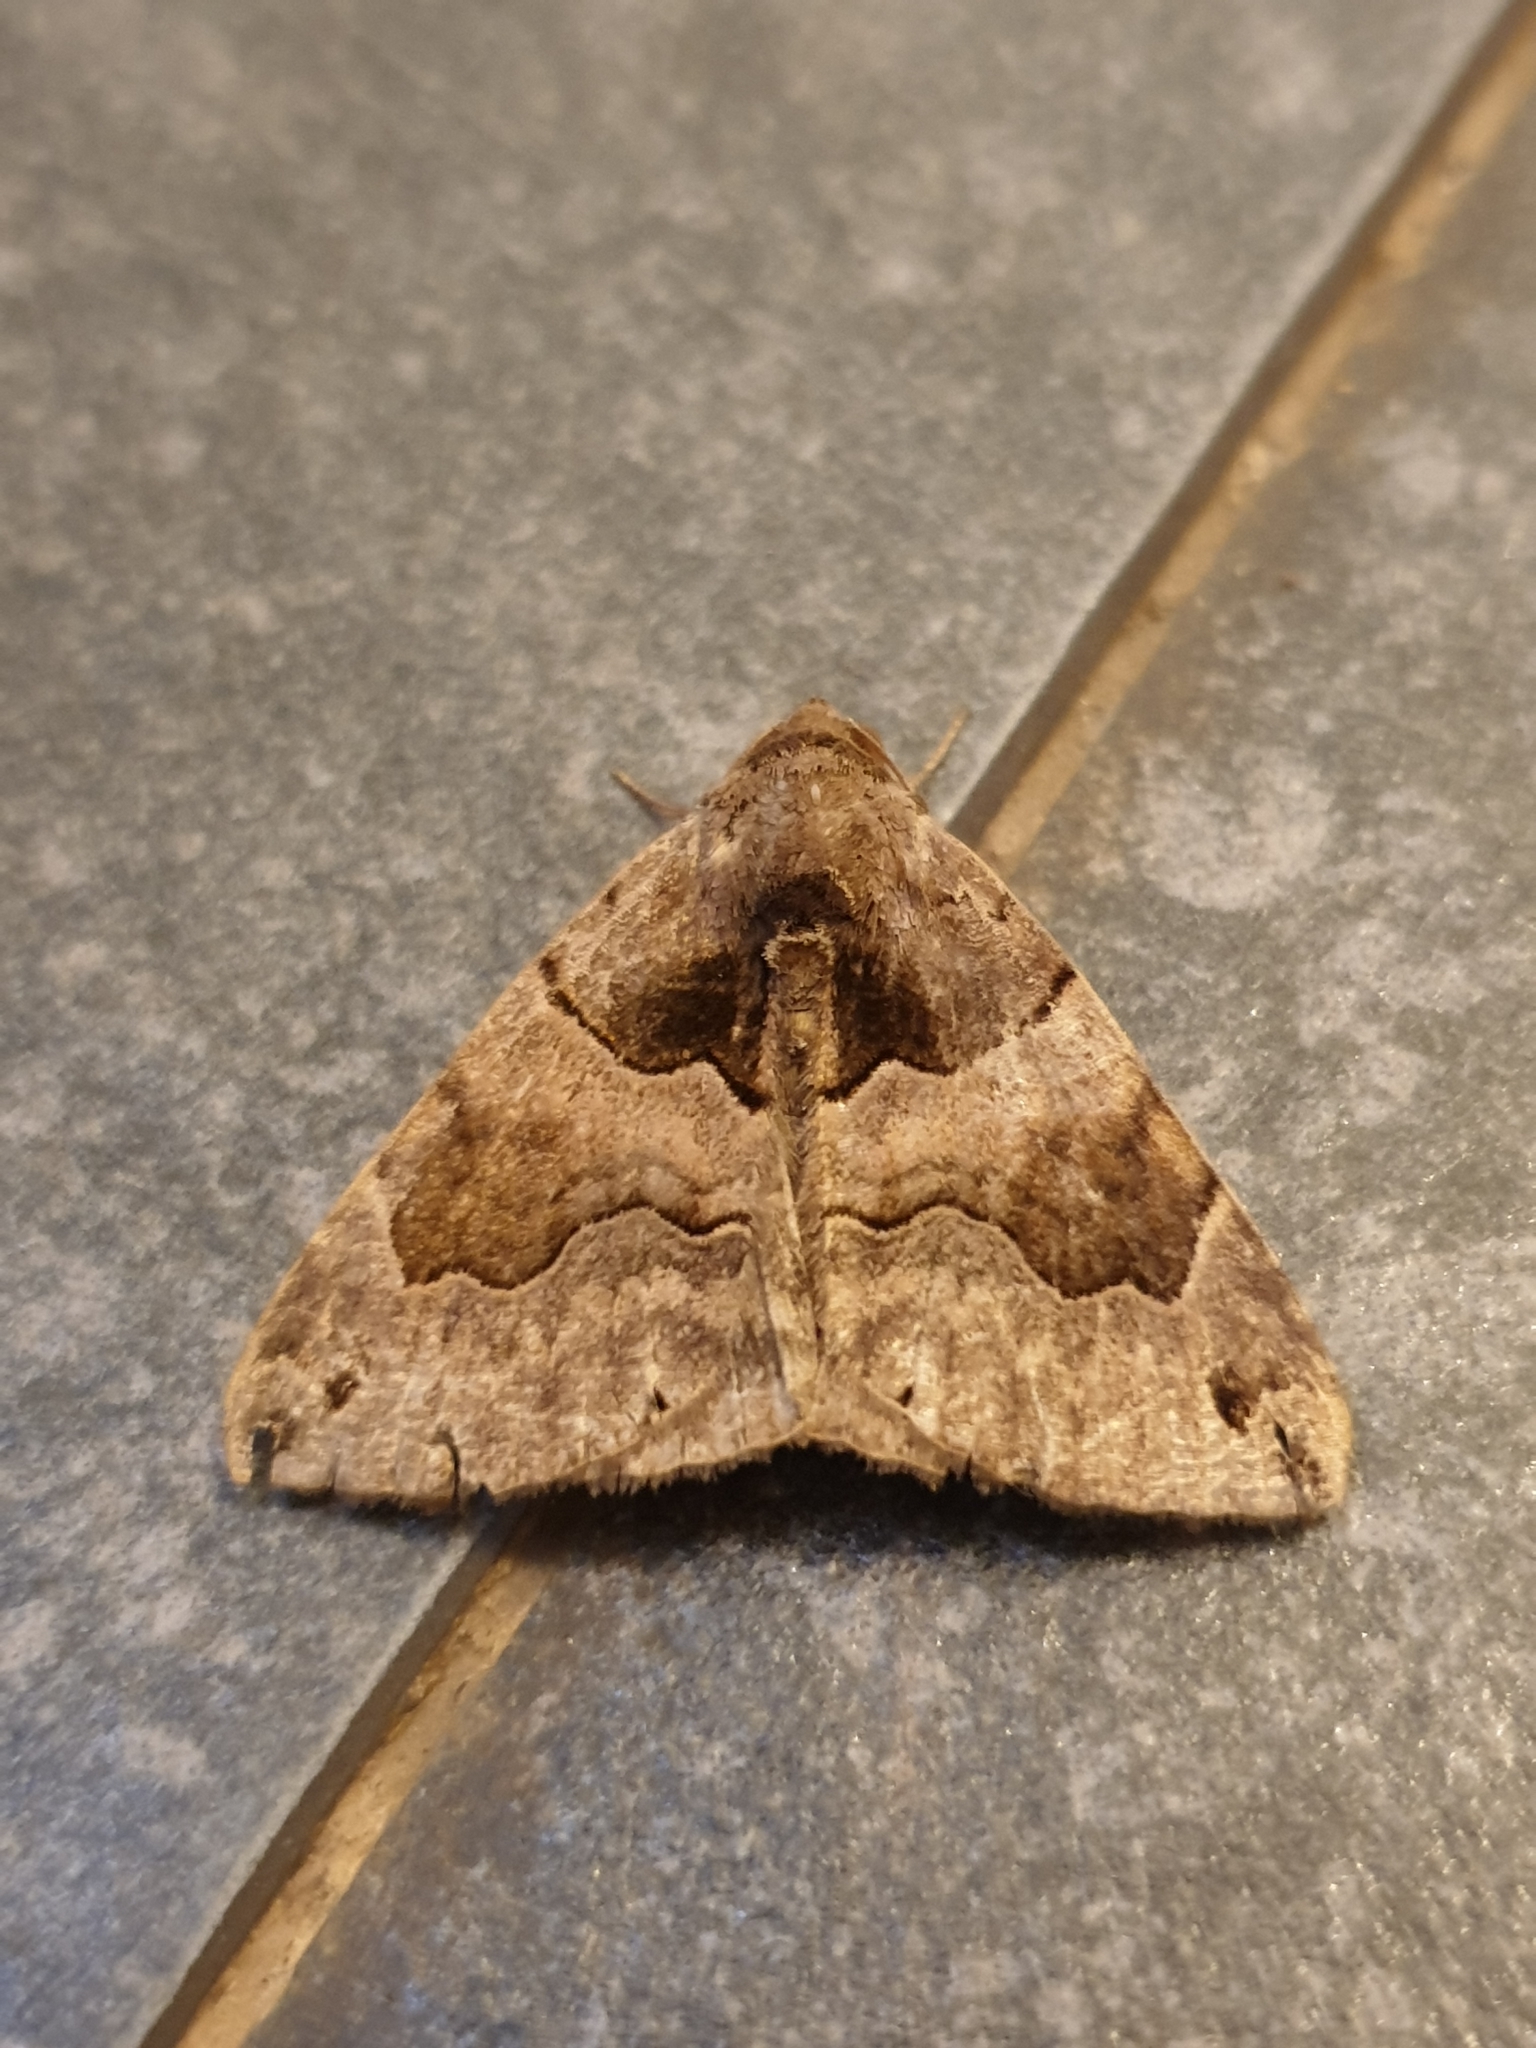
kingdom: Animalia
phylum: Arthropoda
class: Insecta
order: Lepidoptera
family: Erebidae
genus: Dysgonia
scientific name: Dysgonia simillima
